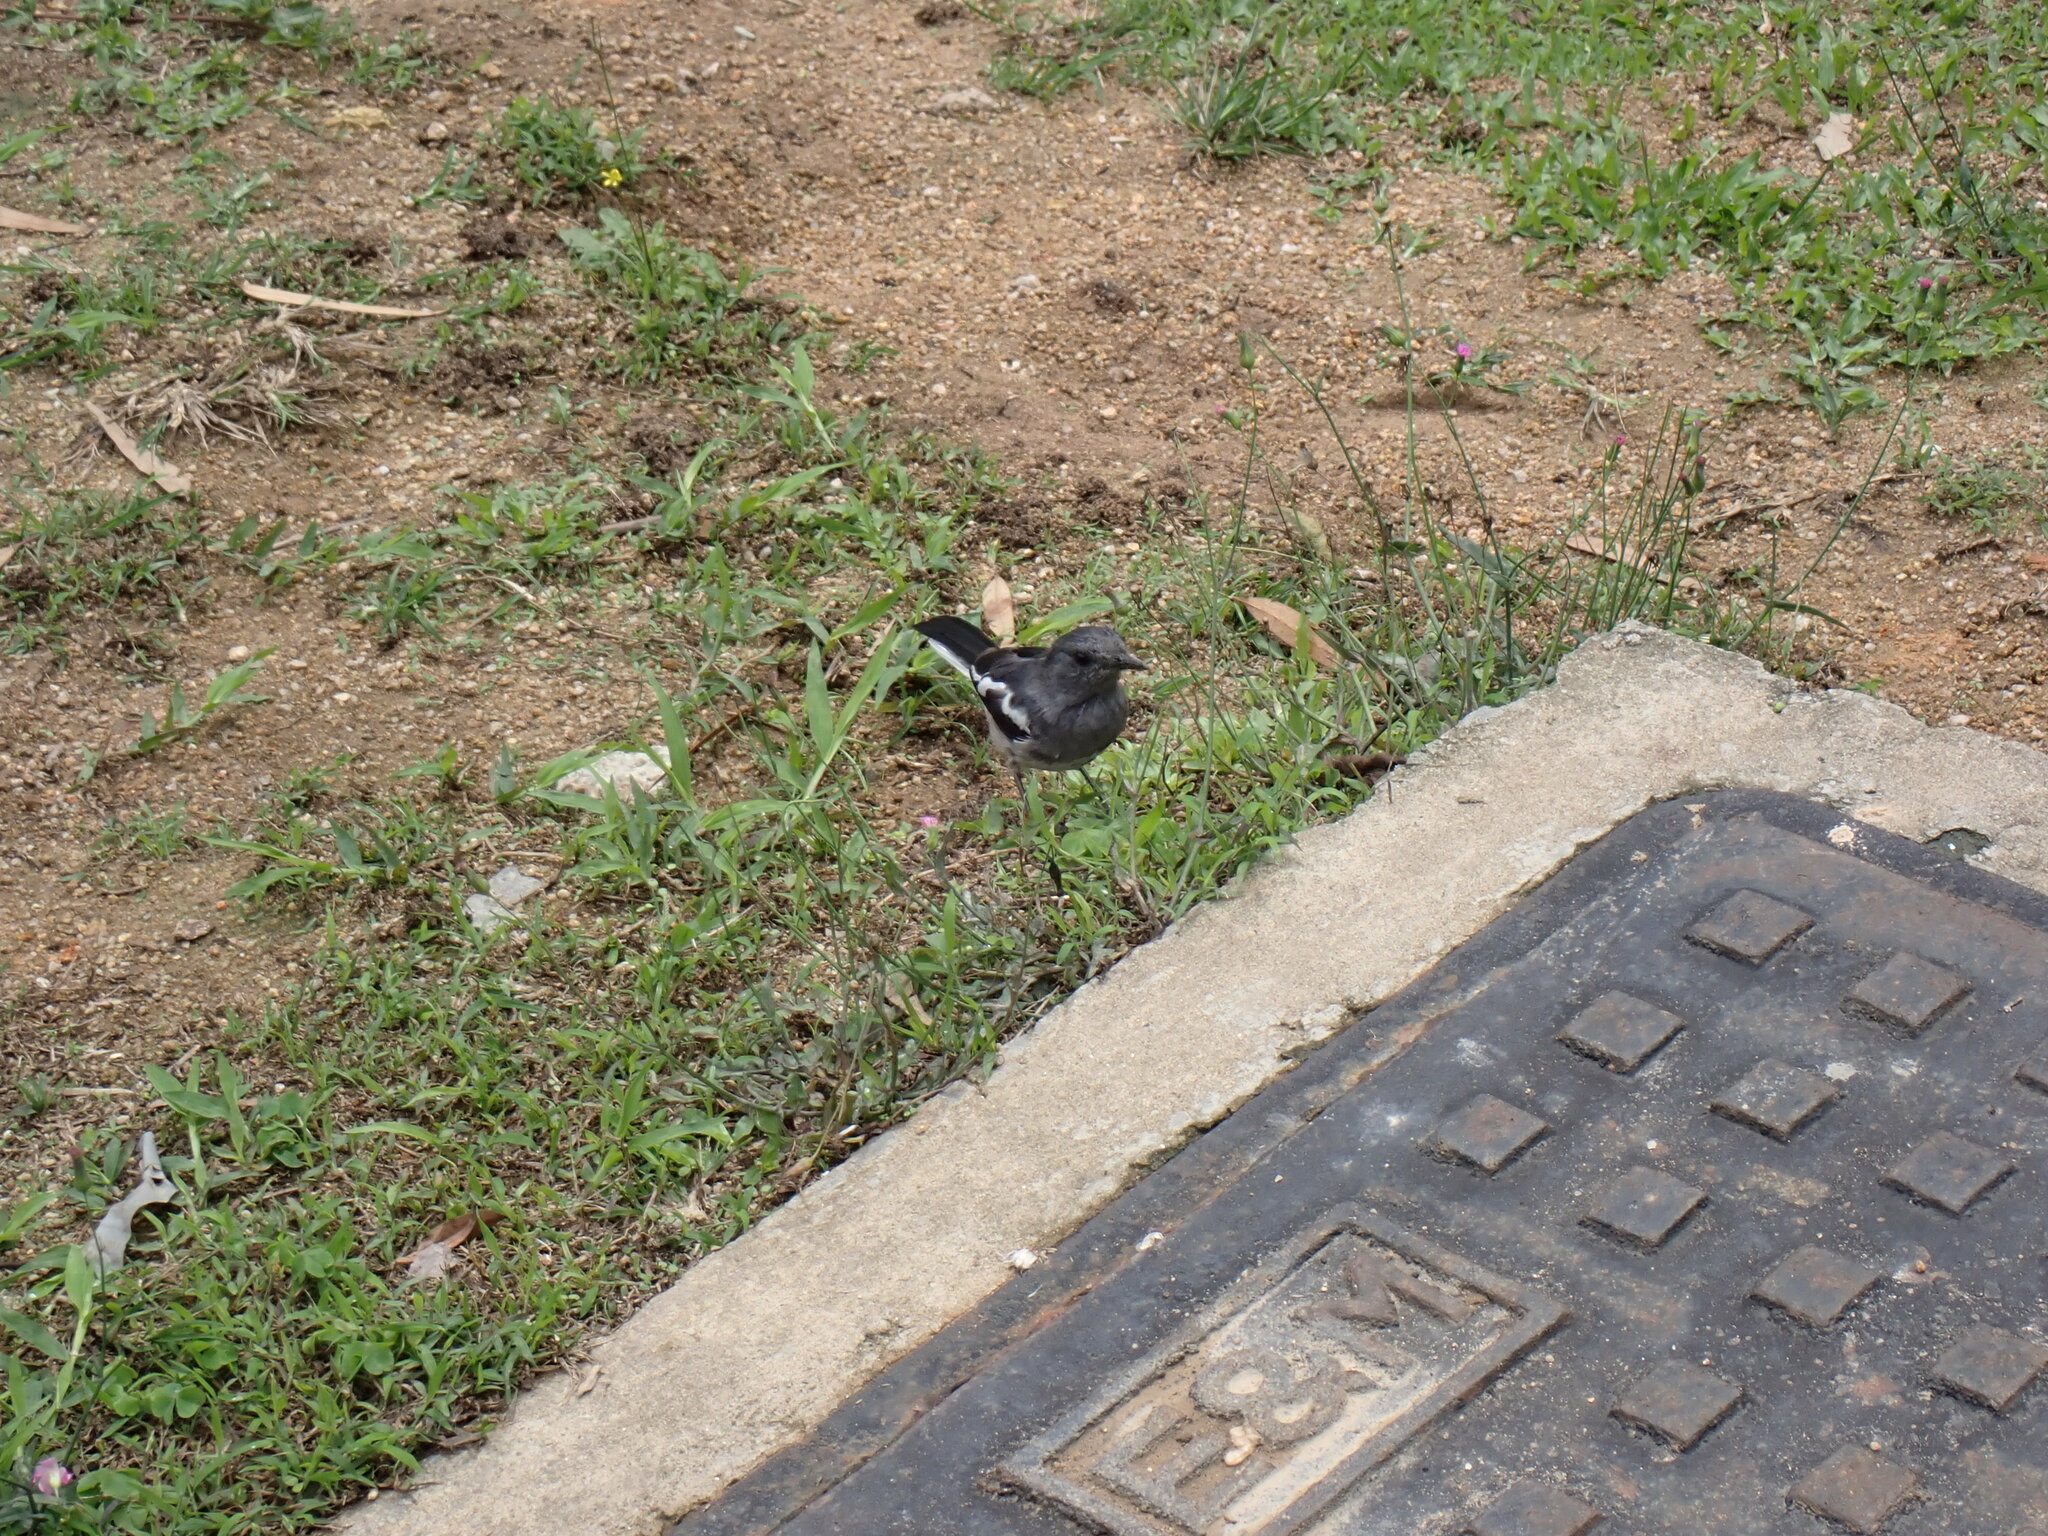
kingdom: Animalia
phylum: Chordata
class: Aves
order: Passeriformes
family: Muscicapidae
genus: Copsychus
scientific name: Copsychus saularis
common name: Oriental magpie-robin
